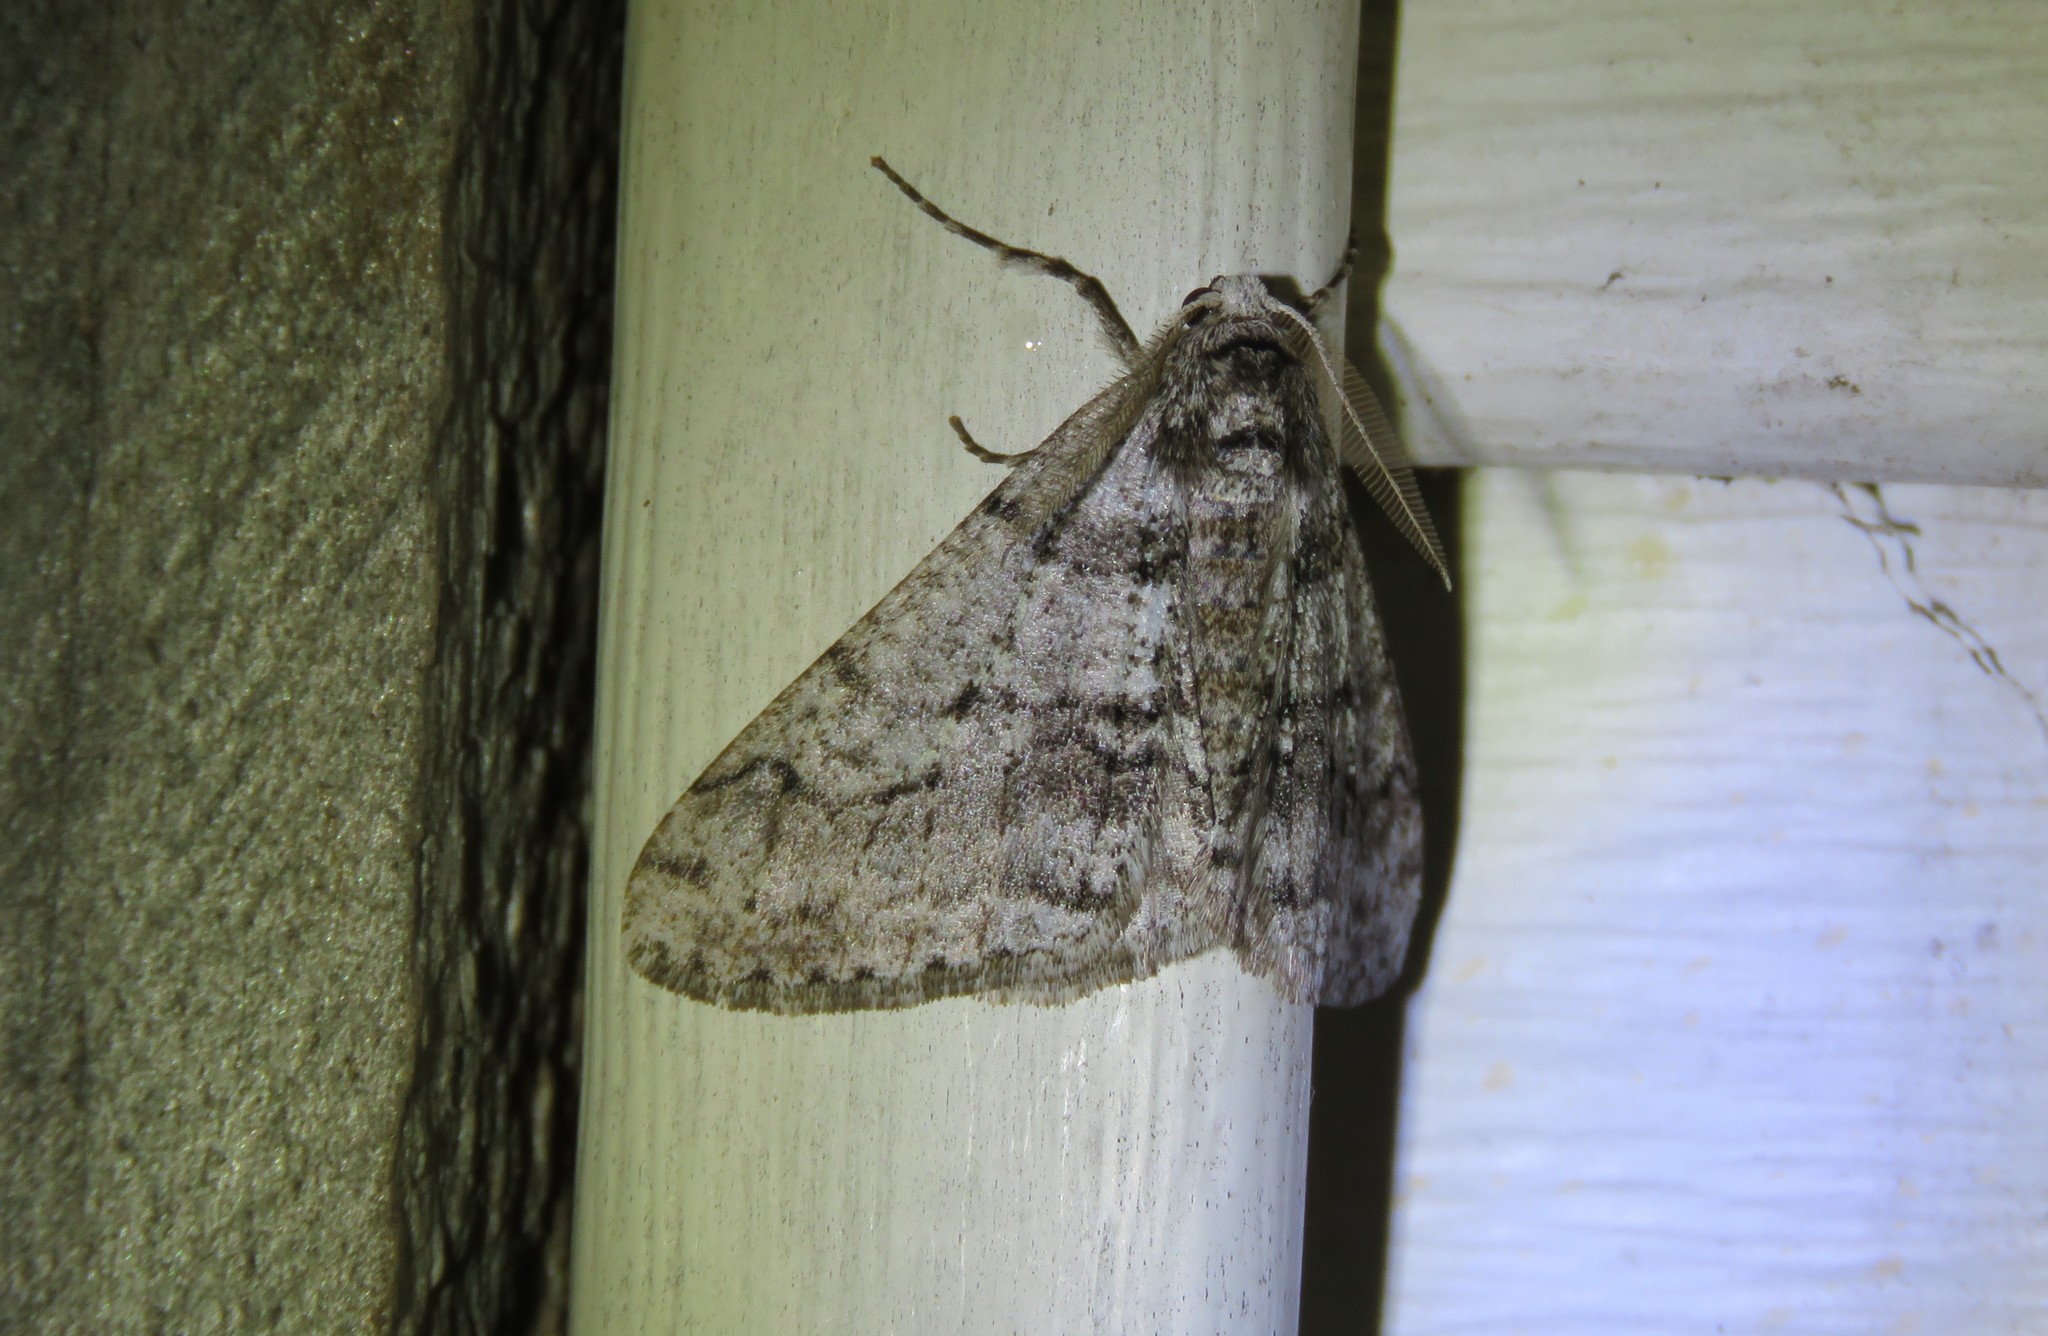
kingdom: Animalia
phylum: Arthropoda
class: Insecta
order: Lepidoptera
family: Geometridae
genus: Phigalia
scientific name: Phigalia titea
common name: Spiny looper
